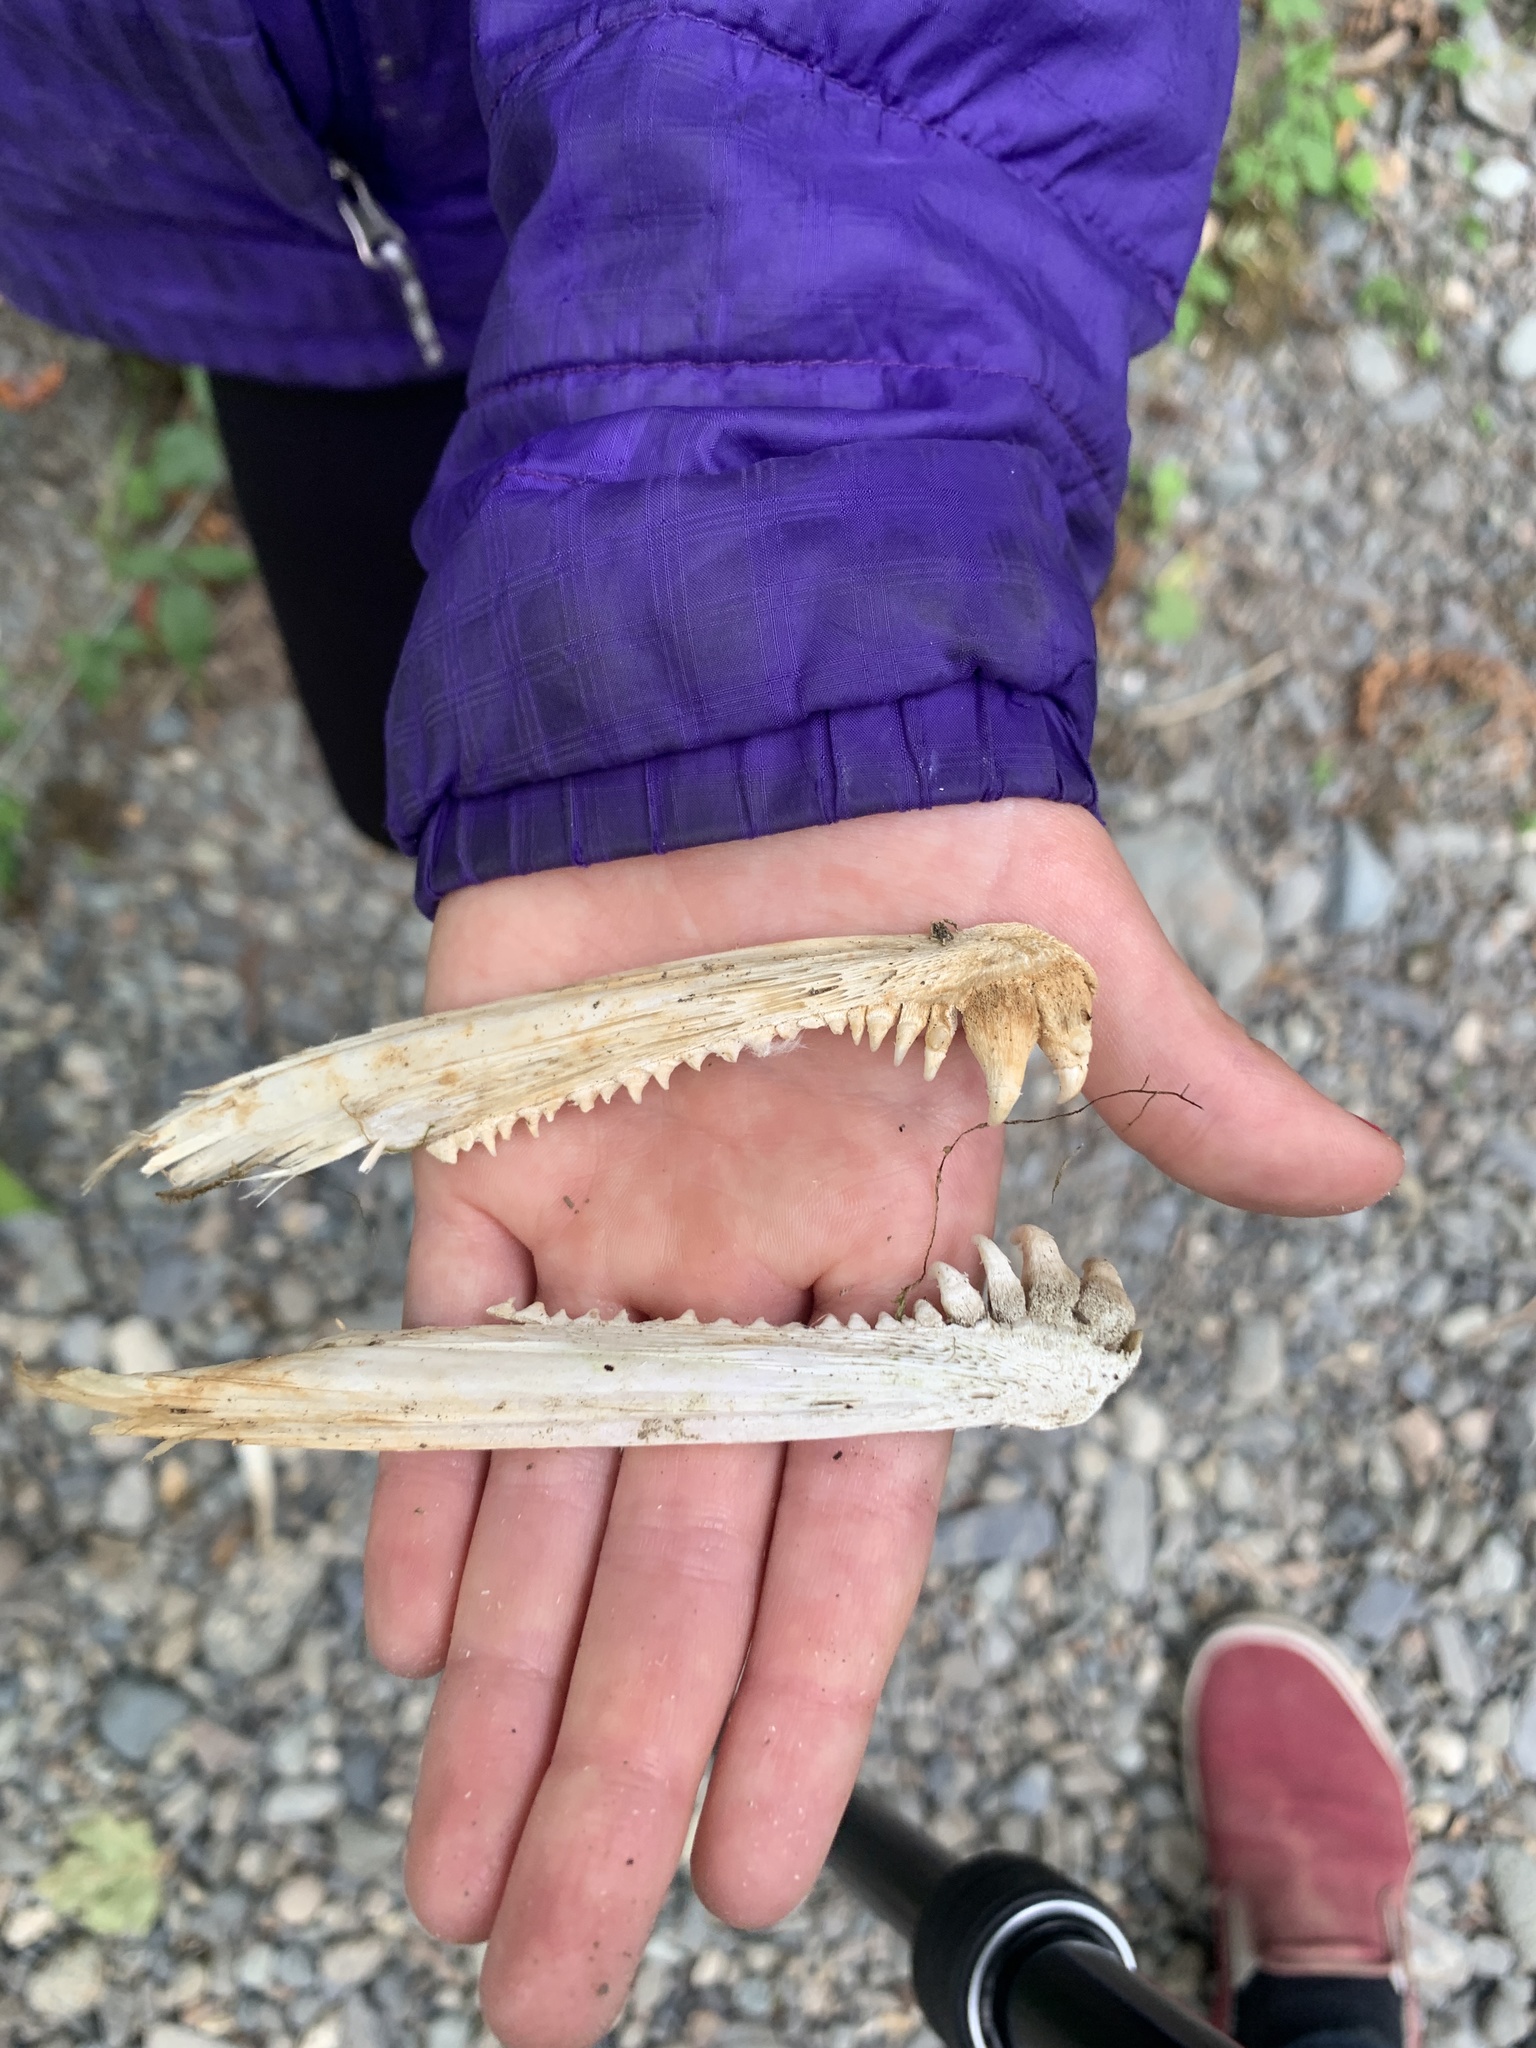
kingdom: Animalia
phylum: Chordata
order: Salmoniformes
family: Salmonidae
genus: Oncorhynchus
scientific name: Oncorhynchus keta
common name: Chum salmon
